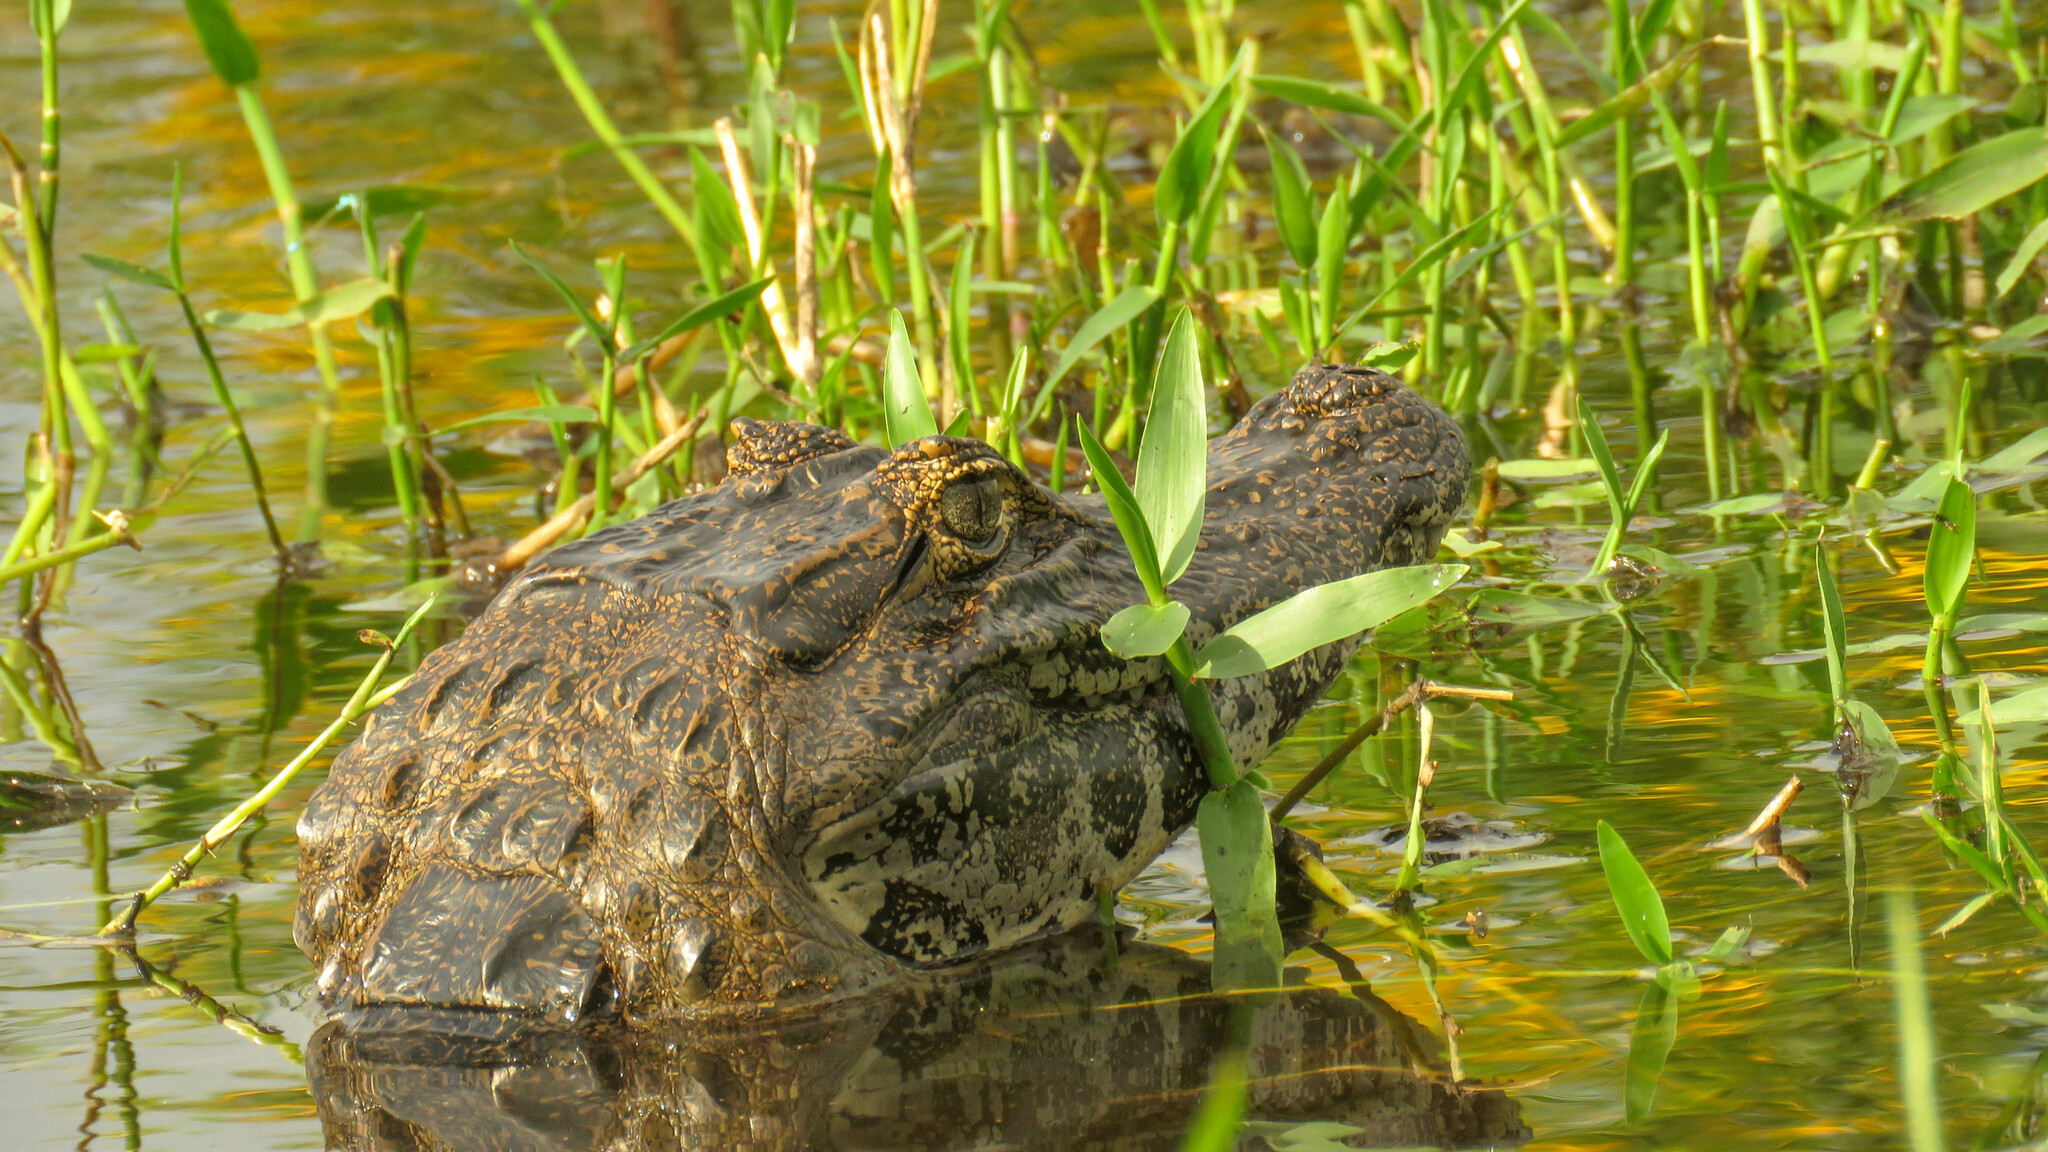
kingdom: Animalia
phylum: Chordata
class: Crocodylia
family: Alligatoridae
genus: Caiman
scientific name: Caiman yacare
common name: Yacare caiman
